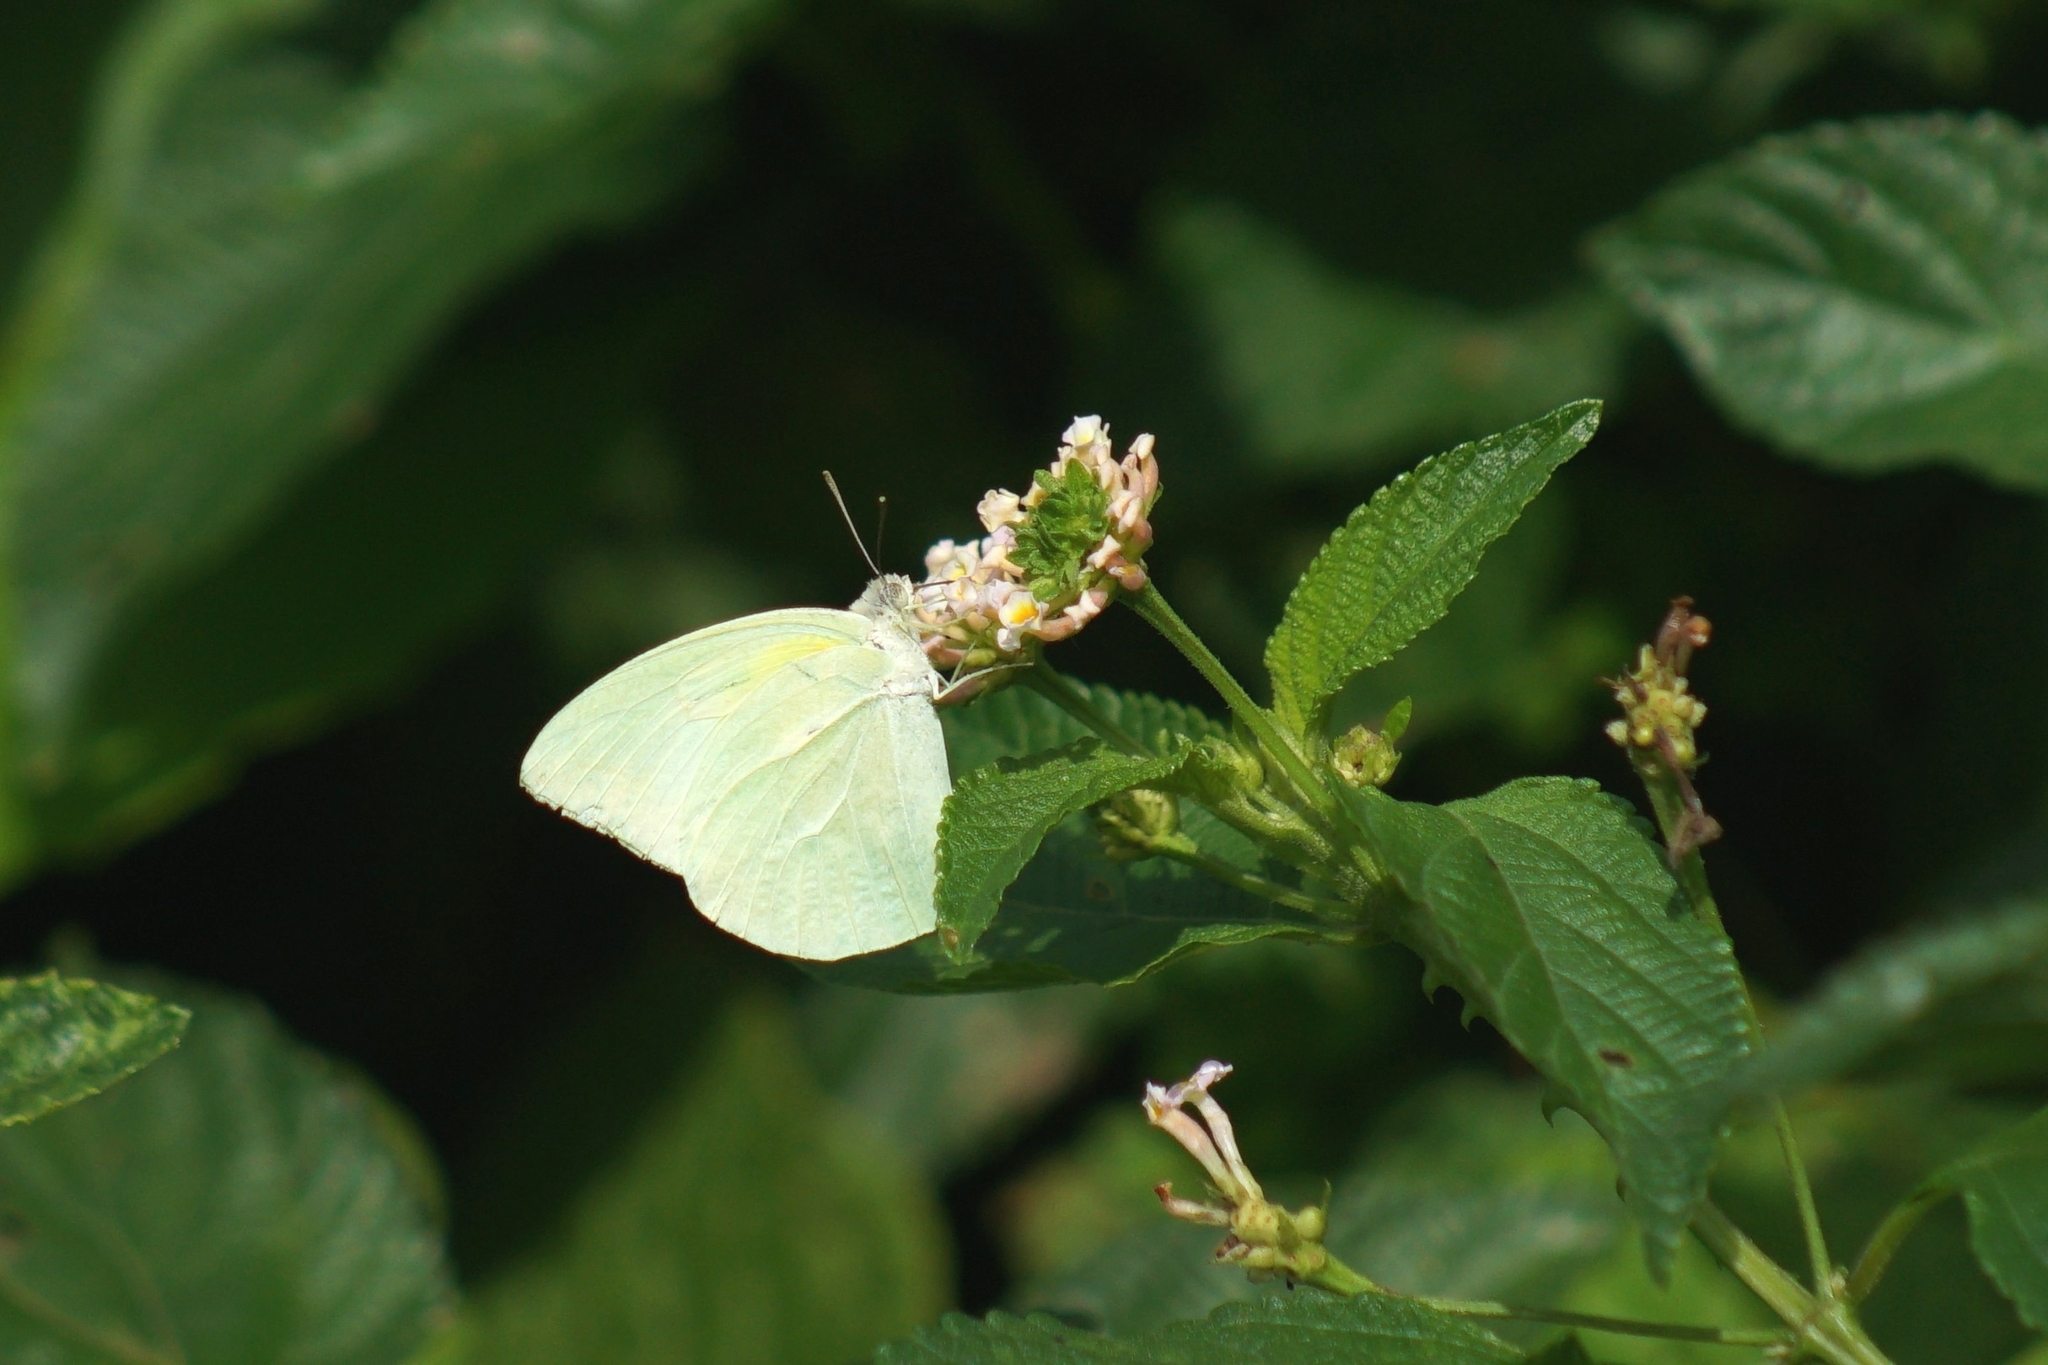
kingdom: Animalia
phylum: Arthropoda
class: Insecta
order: Lepidoptera
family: Pieridae
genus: Catopsilia
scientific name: Catopsilia florella
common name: African migrant
